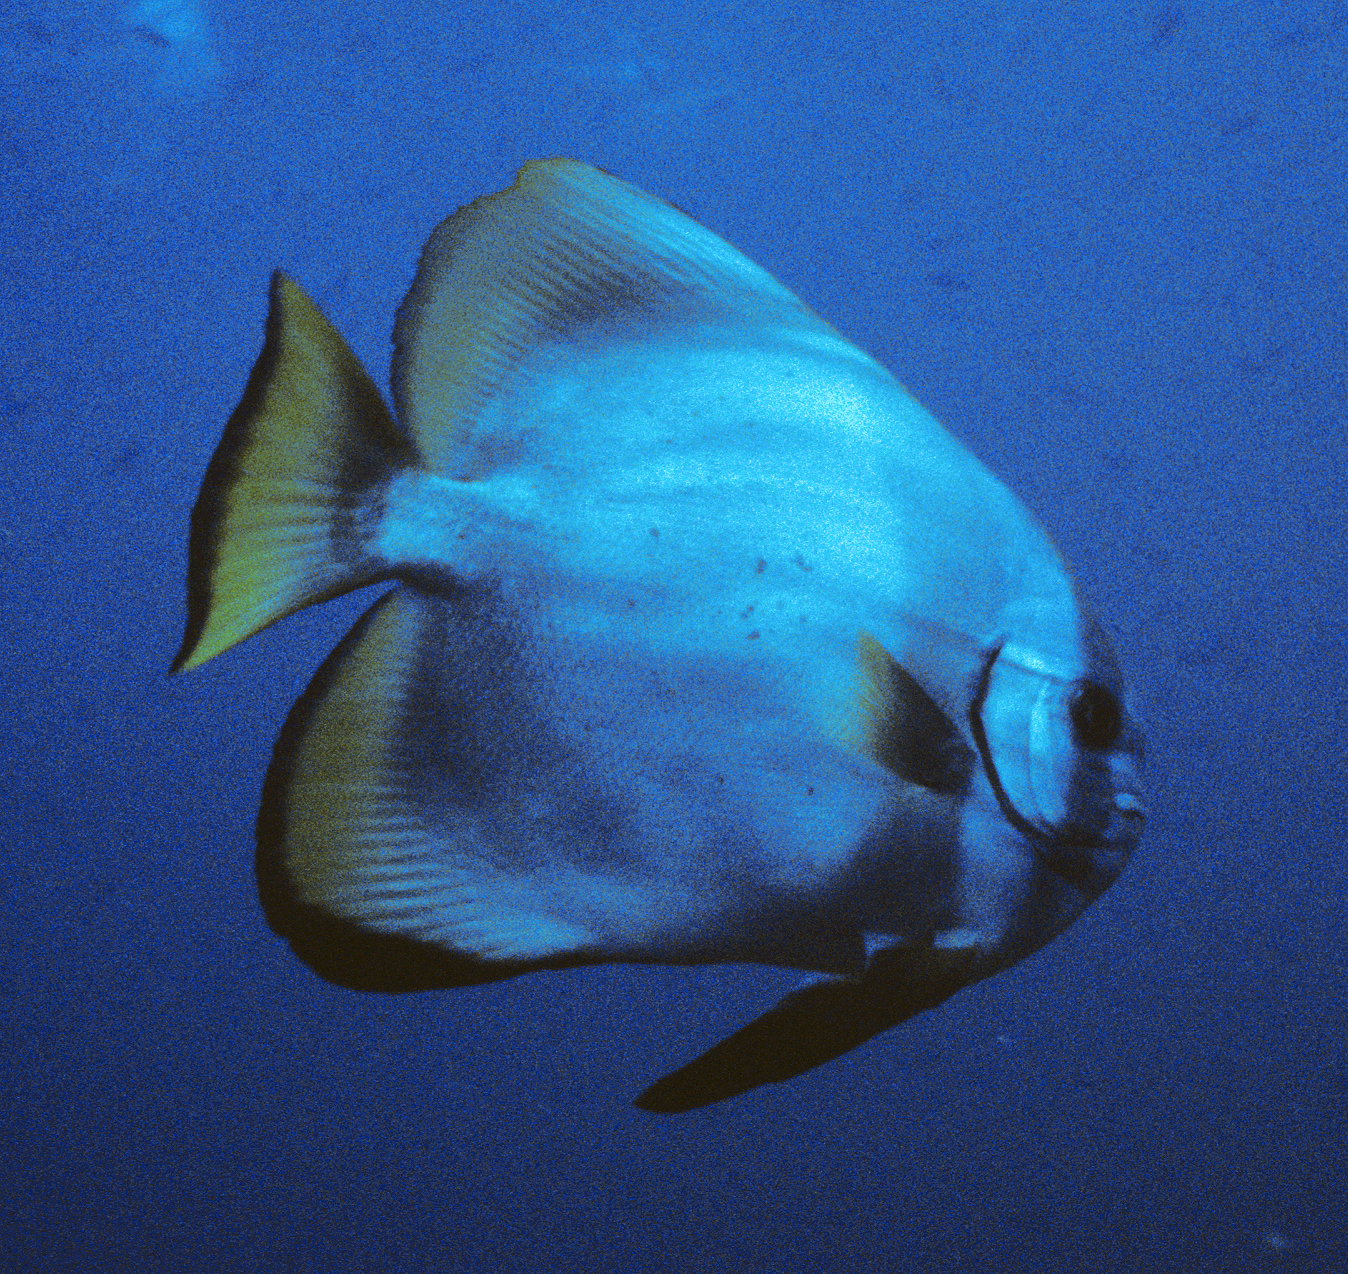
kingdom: Animalia
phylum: Chordata
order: Perciformes
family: Ephippidae
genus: Platax
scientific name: Platax boersii
